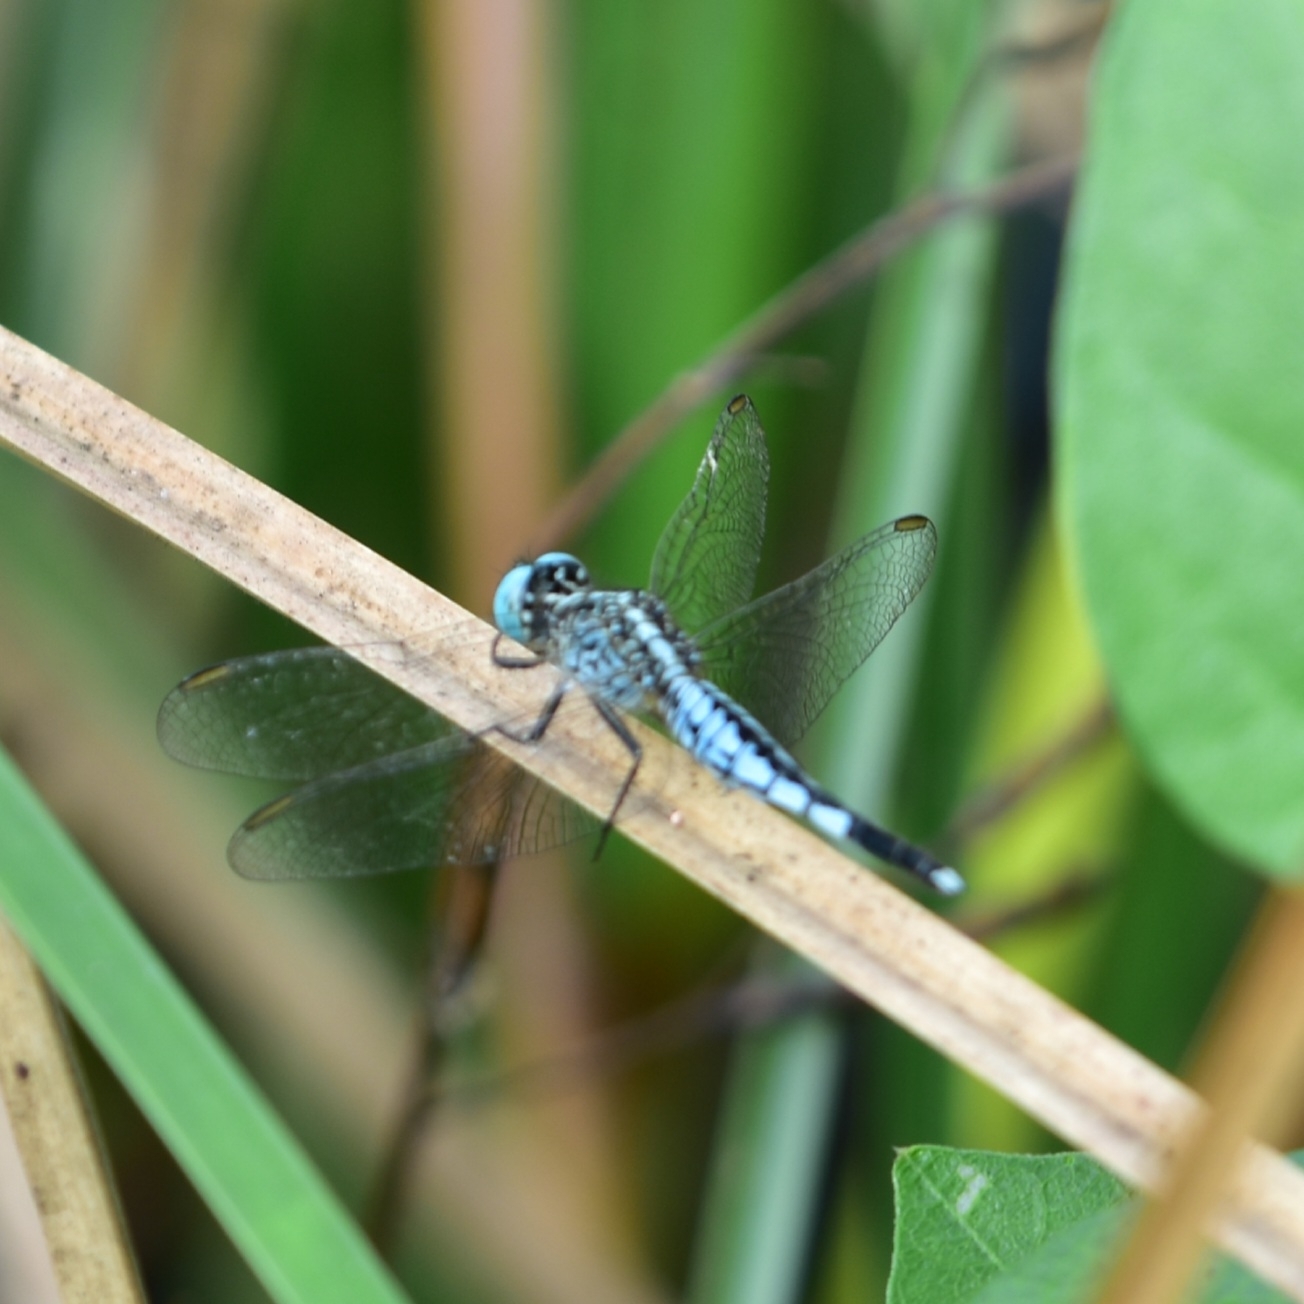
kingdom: Animalia
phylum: Arthropoda
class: Insecta
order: Odonata
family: Libellulidae
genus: Acisoma
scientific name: Acisoma panorpoides
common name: Asian pintail
